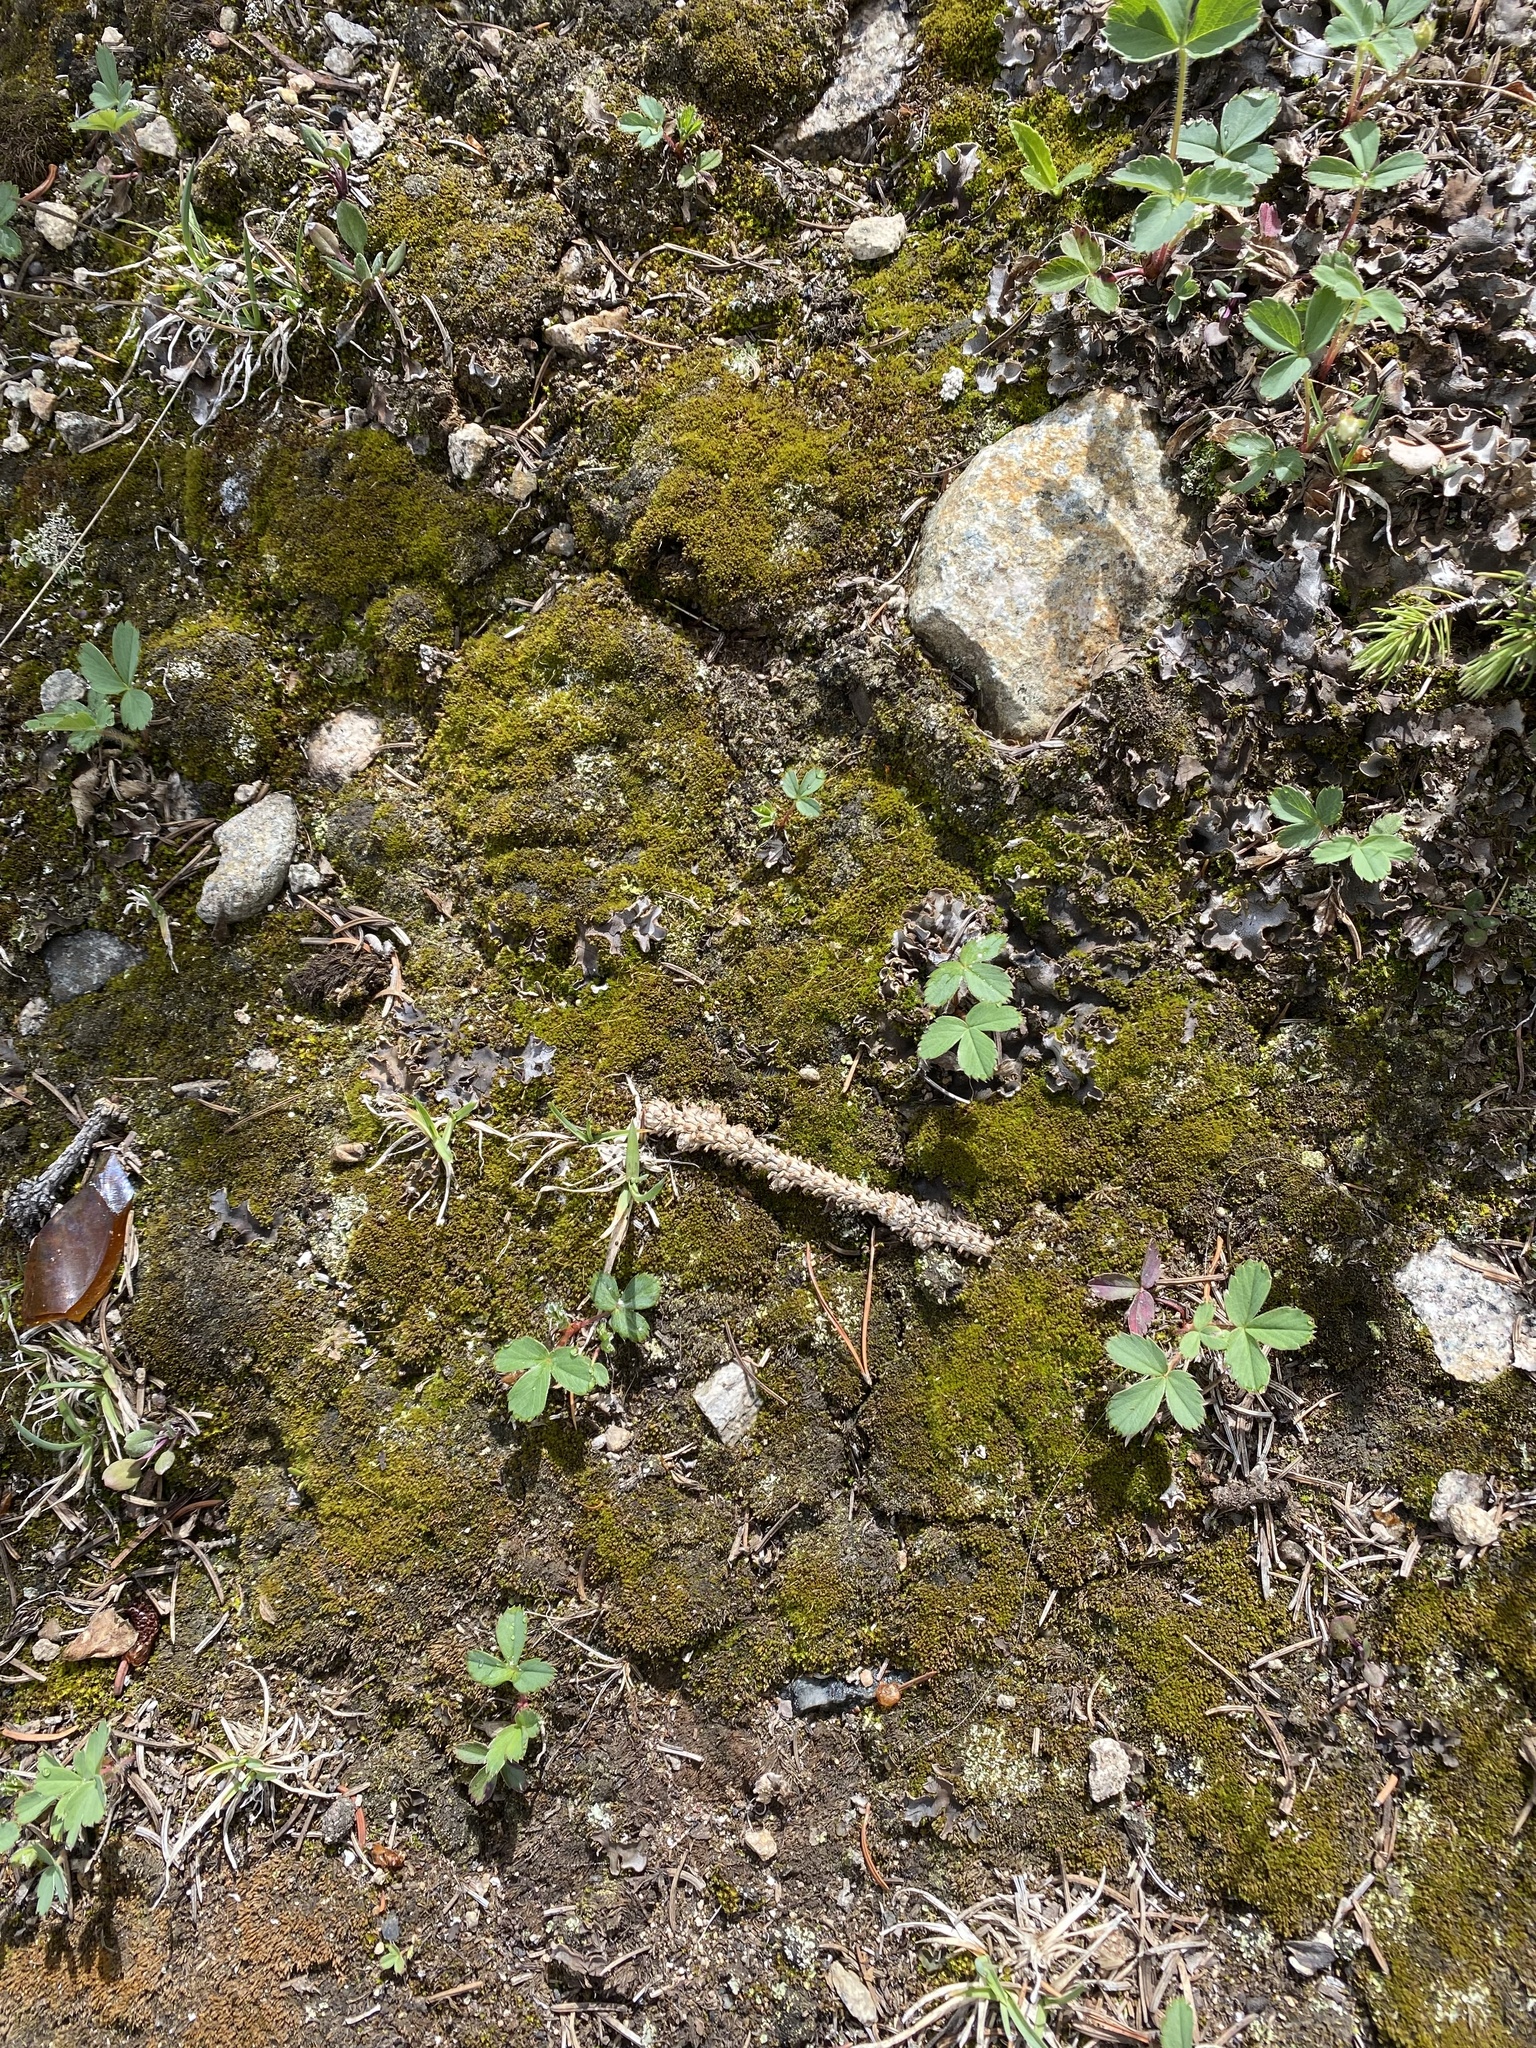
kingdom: Plantae
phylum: Tracheophyta
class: Magnoliopsida
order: Rosales
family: Rosaceae
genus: Fragaria
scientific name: Fragaria virginiana
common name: Thickleaved wild strawberry
